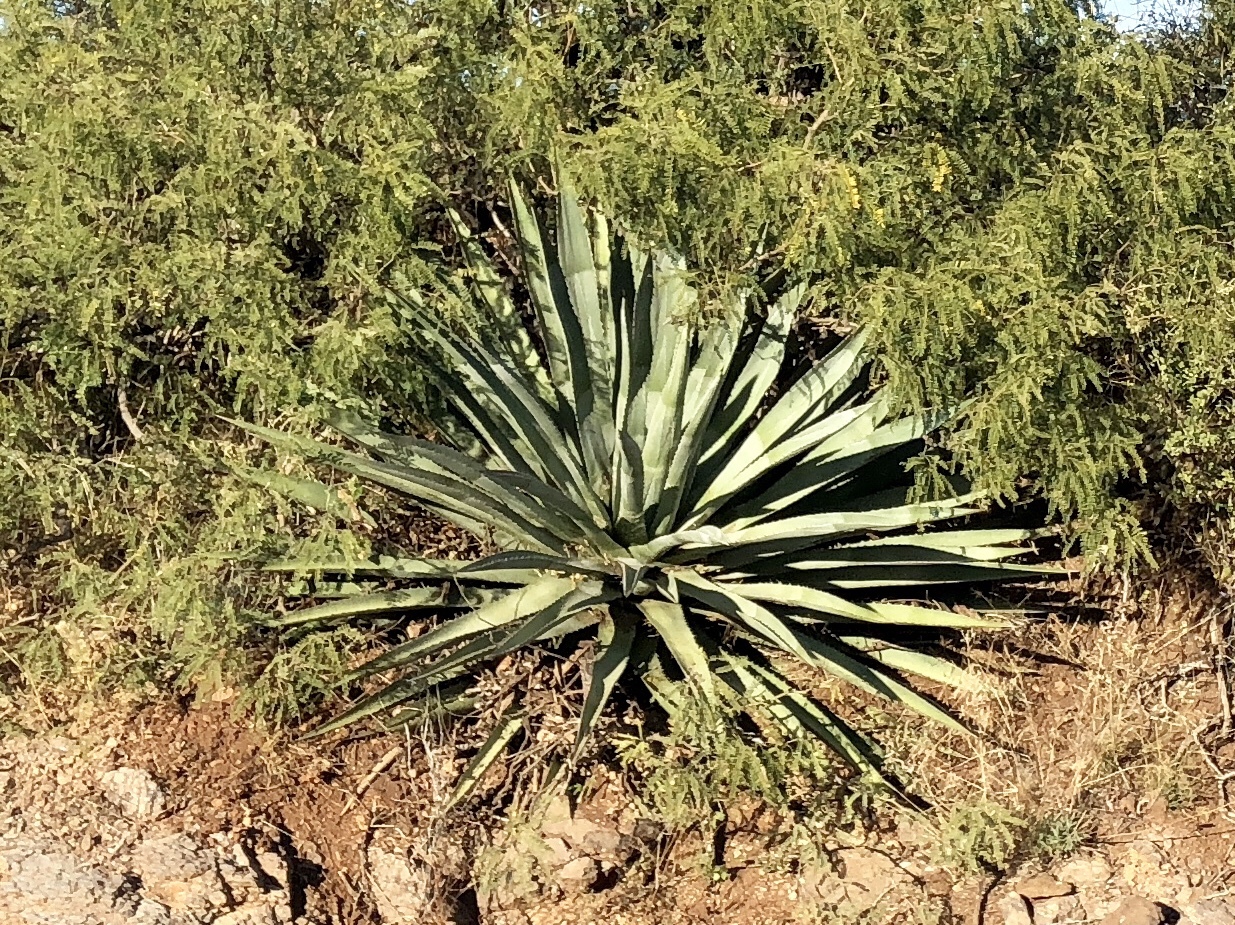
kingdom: Plantae
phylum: Tracheophyta
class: Liliopsida
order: Asparagales
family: Asparagaceae
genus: Agave
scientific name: Agave palmeri
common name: Palmer agave
